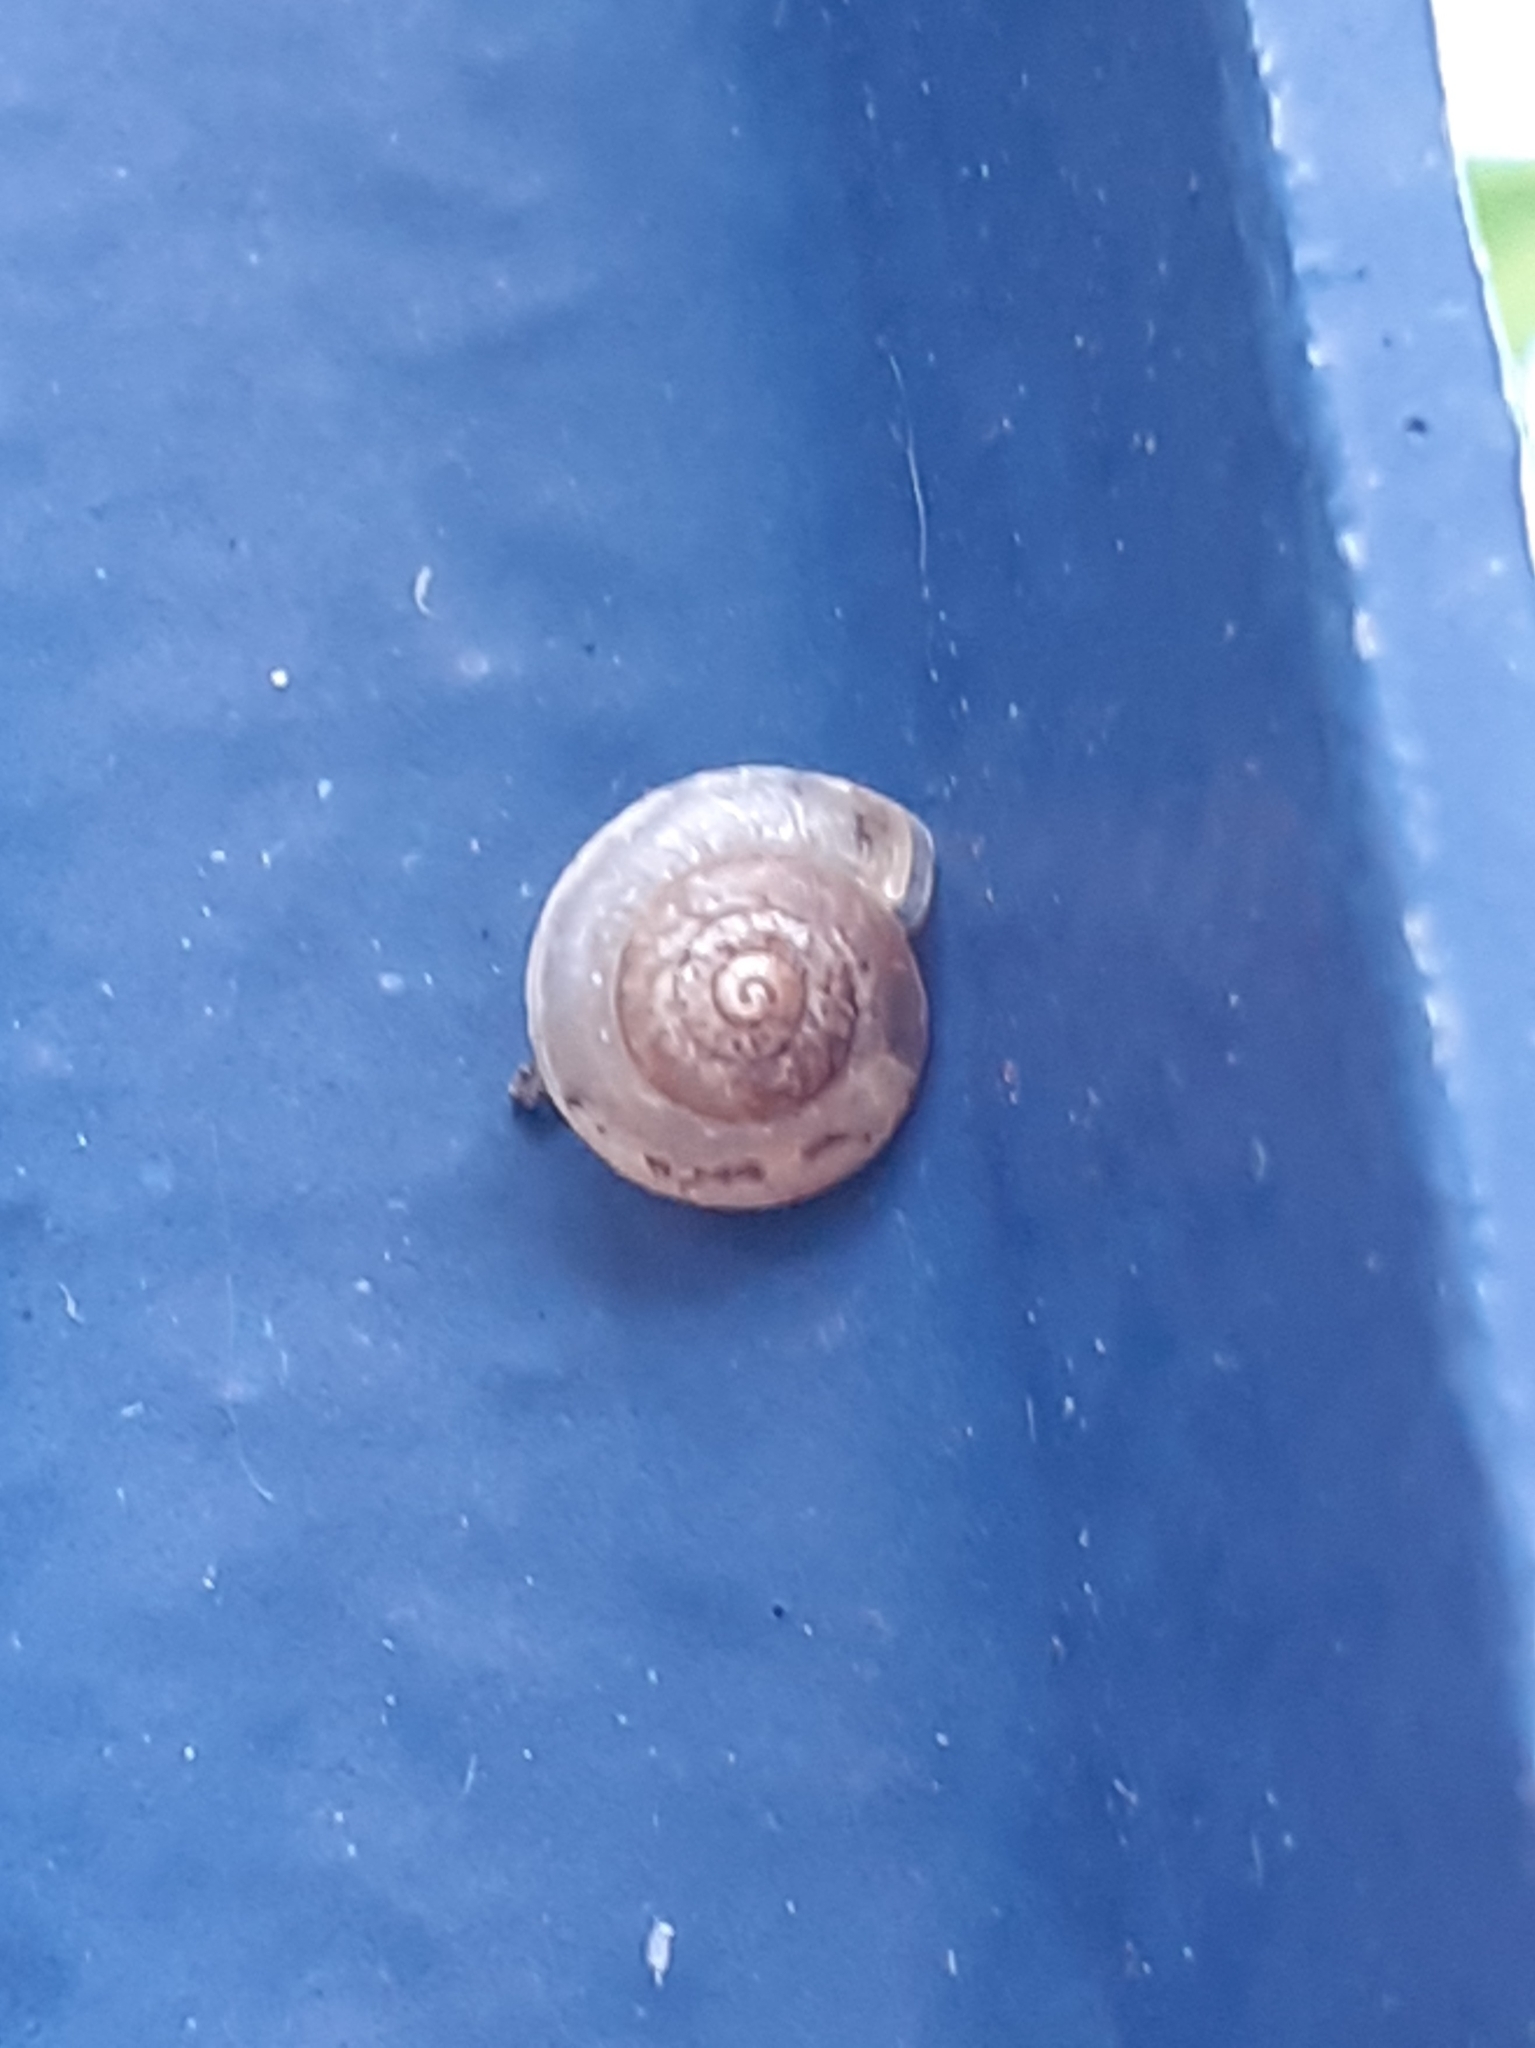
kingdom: Animalia
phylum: Mollusca
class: Gastropoda
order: Stylommatophora
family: Hygromiidae
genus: Hygromia
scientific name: Hygromia cinctella
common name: Girdled snail
